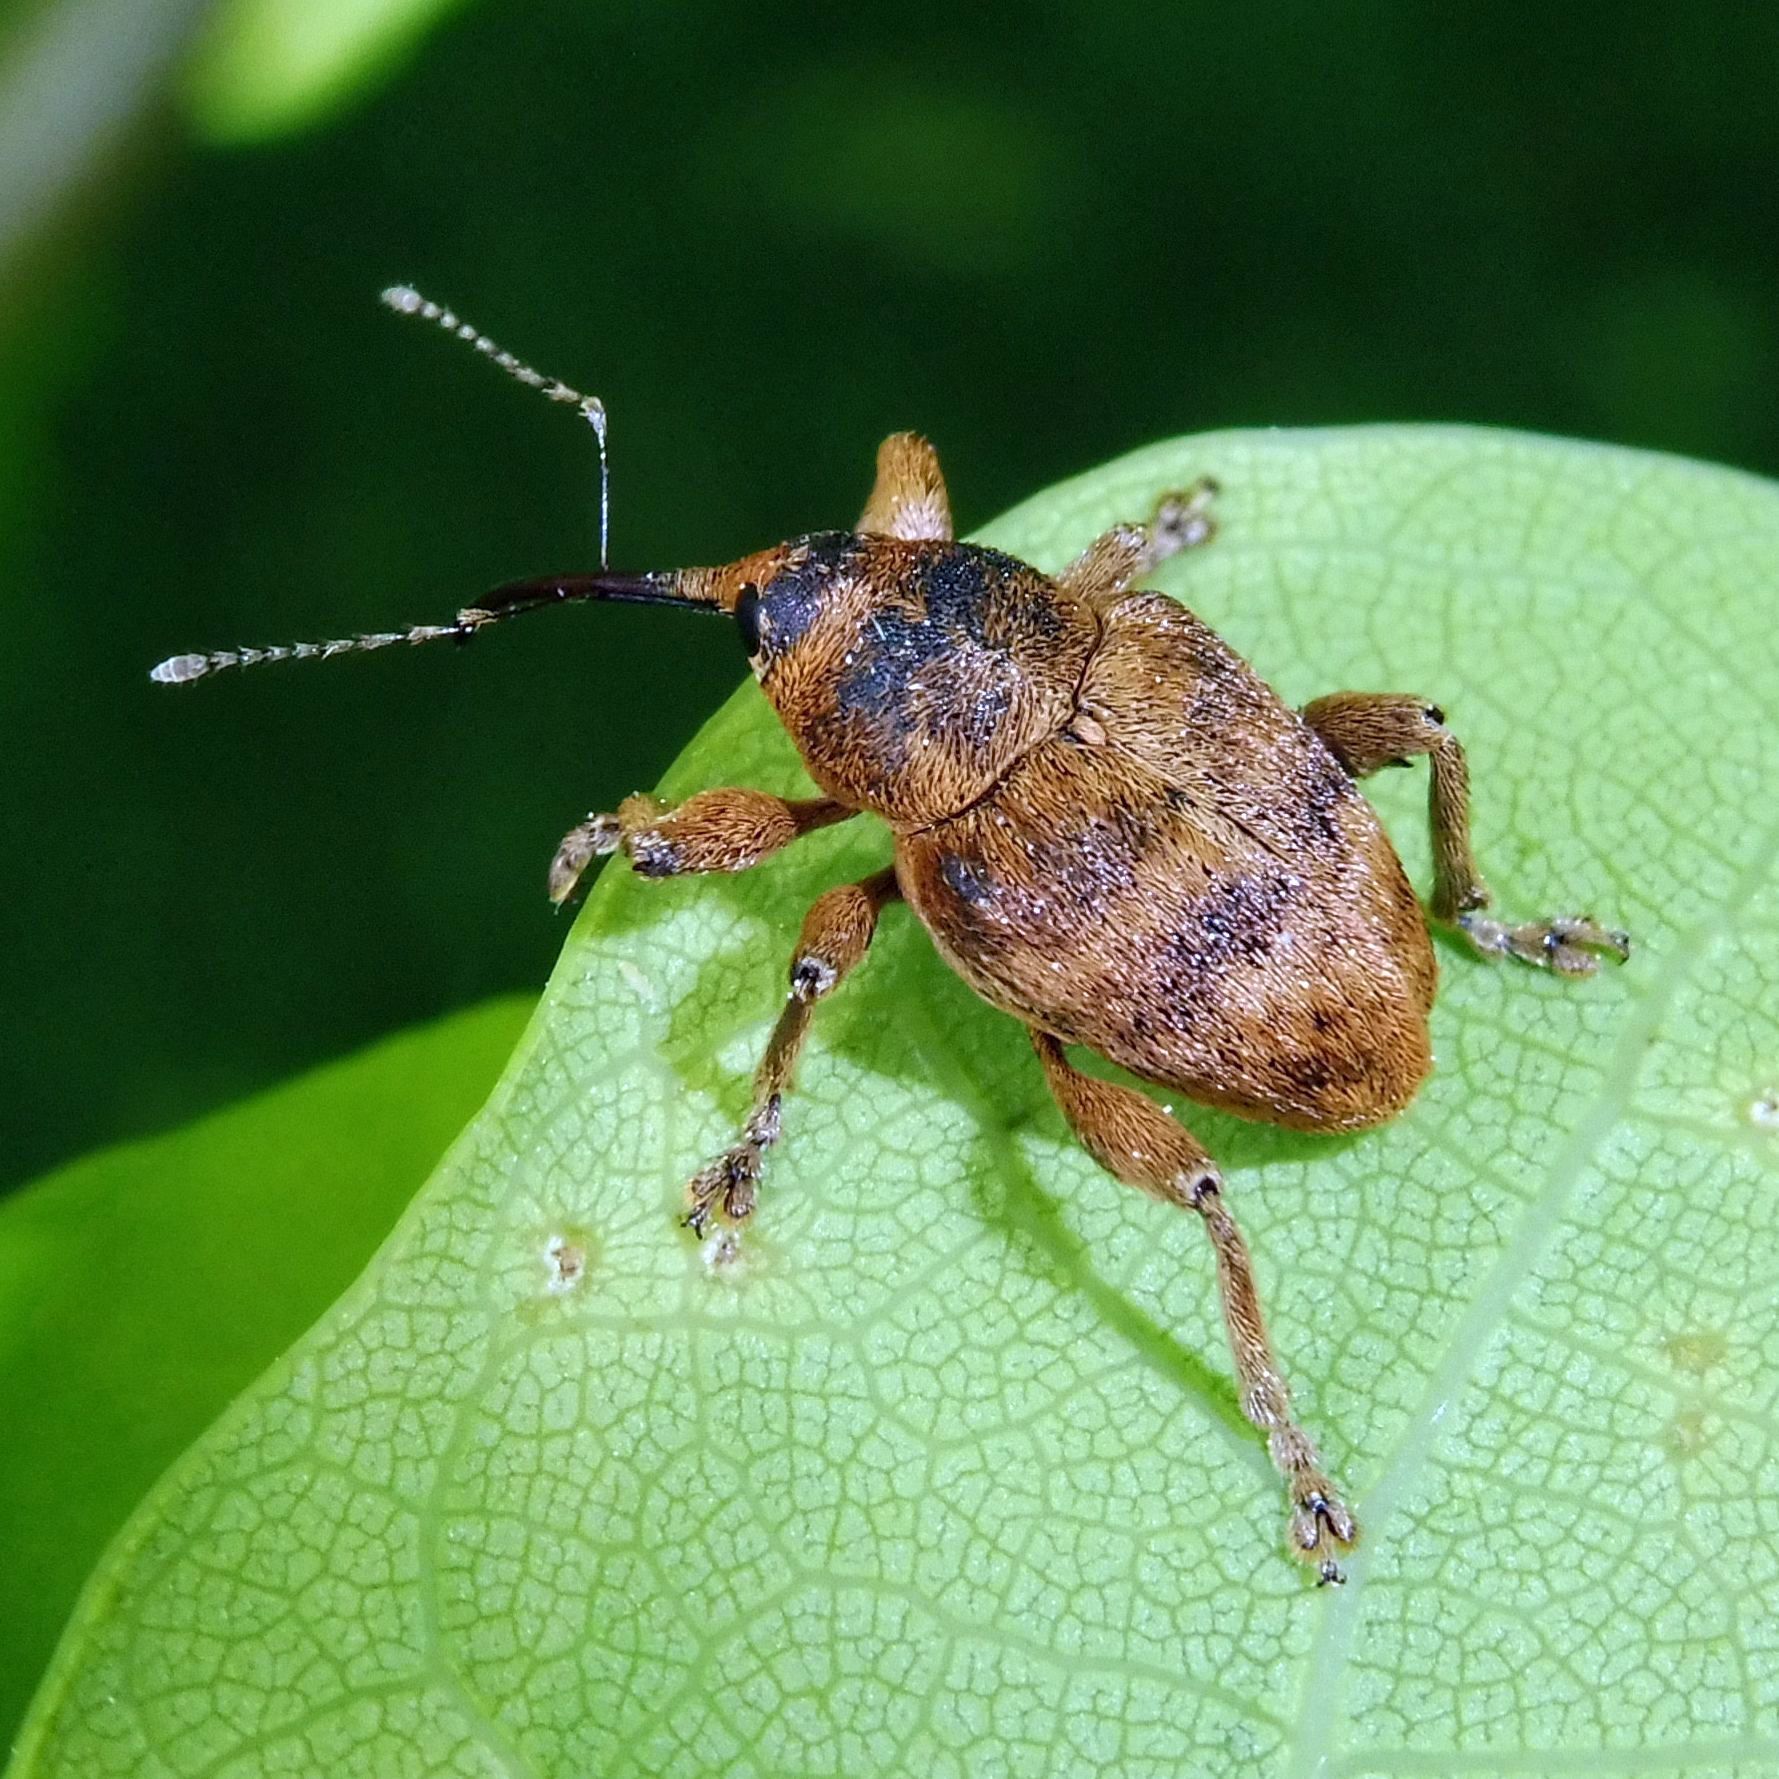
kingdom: Animalia
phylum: Arthropoda
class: Insecta
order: Coleoptera
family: Curculionidae
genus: Curculio
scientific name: Curculio venosus
